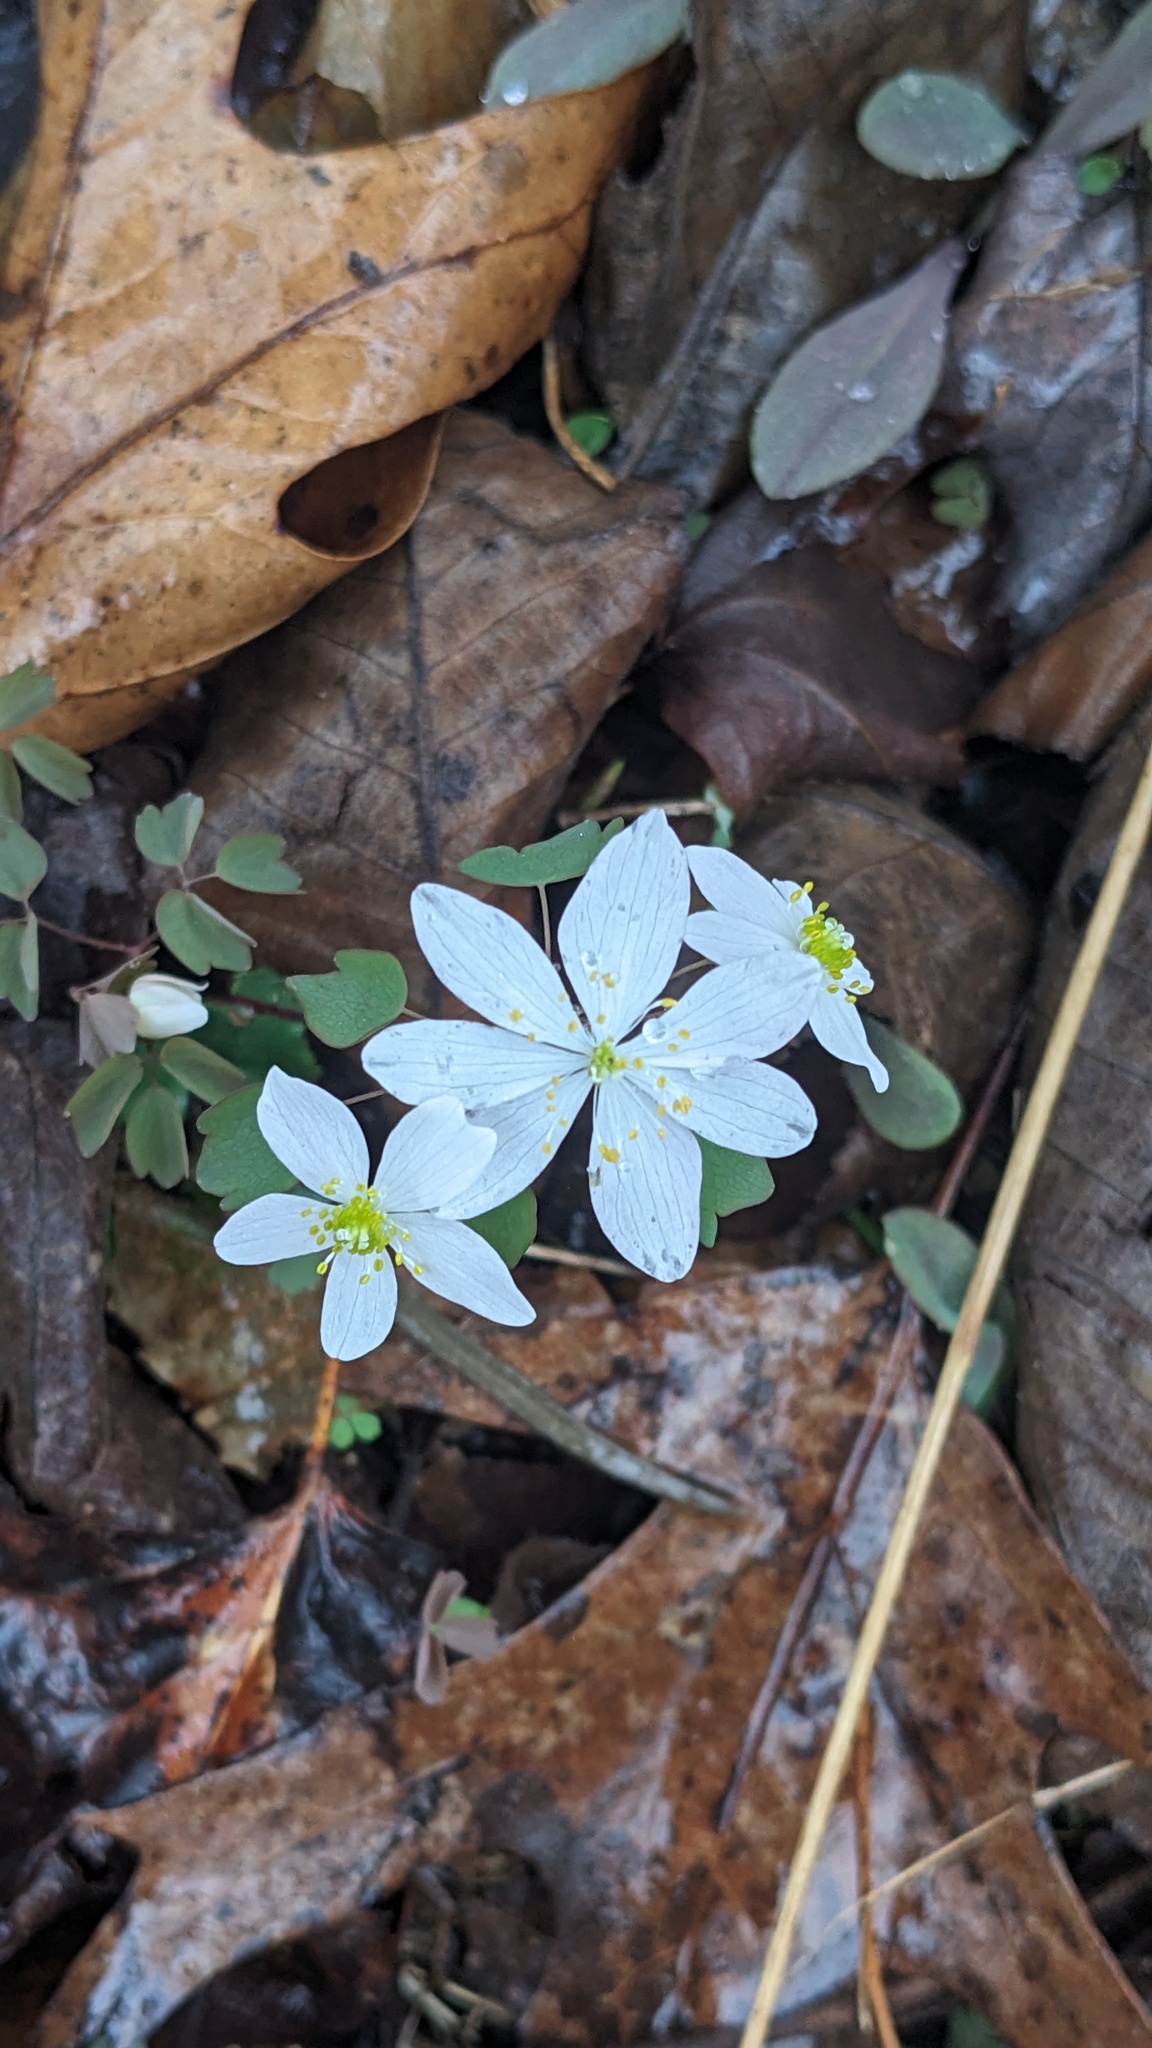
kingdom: Plantae
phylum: Tracheophyta
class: Magnoliopsida
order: Ranunculales
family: Ranunculaceae
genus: Thalictrum
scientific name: Thalictrum thalictroides
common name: Rue-anemone
